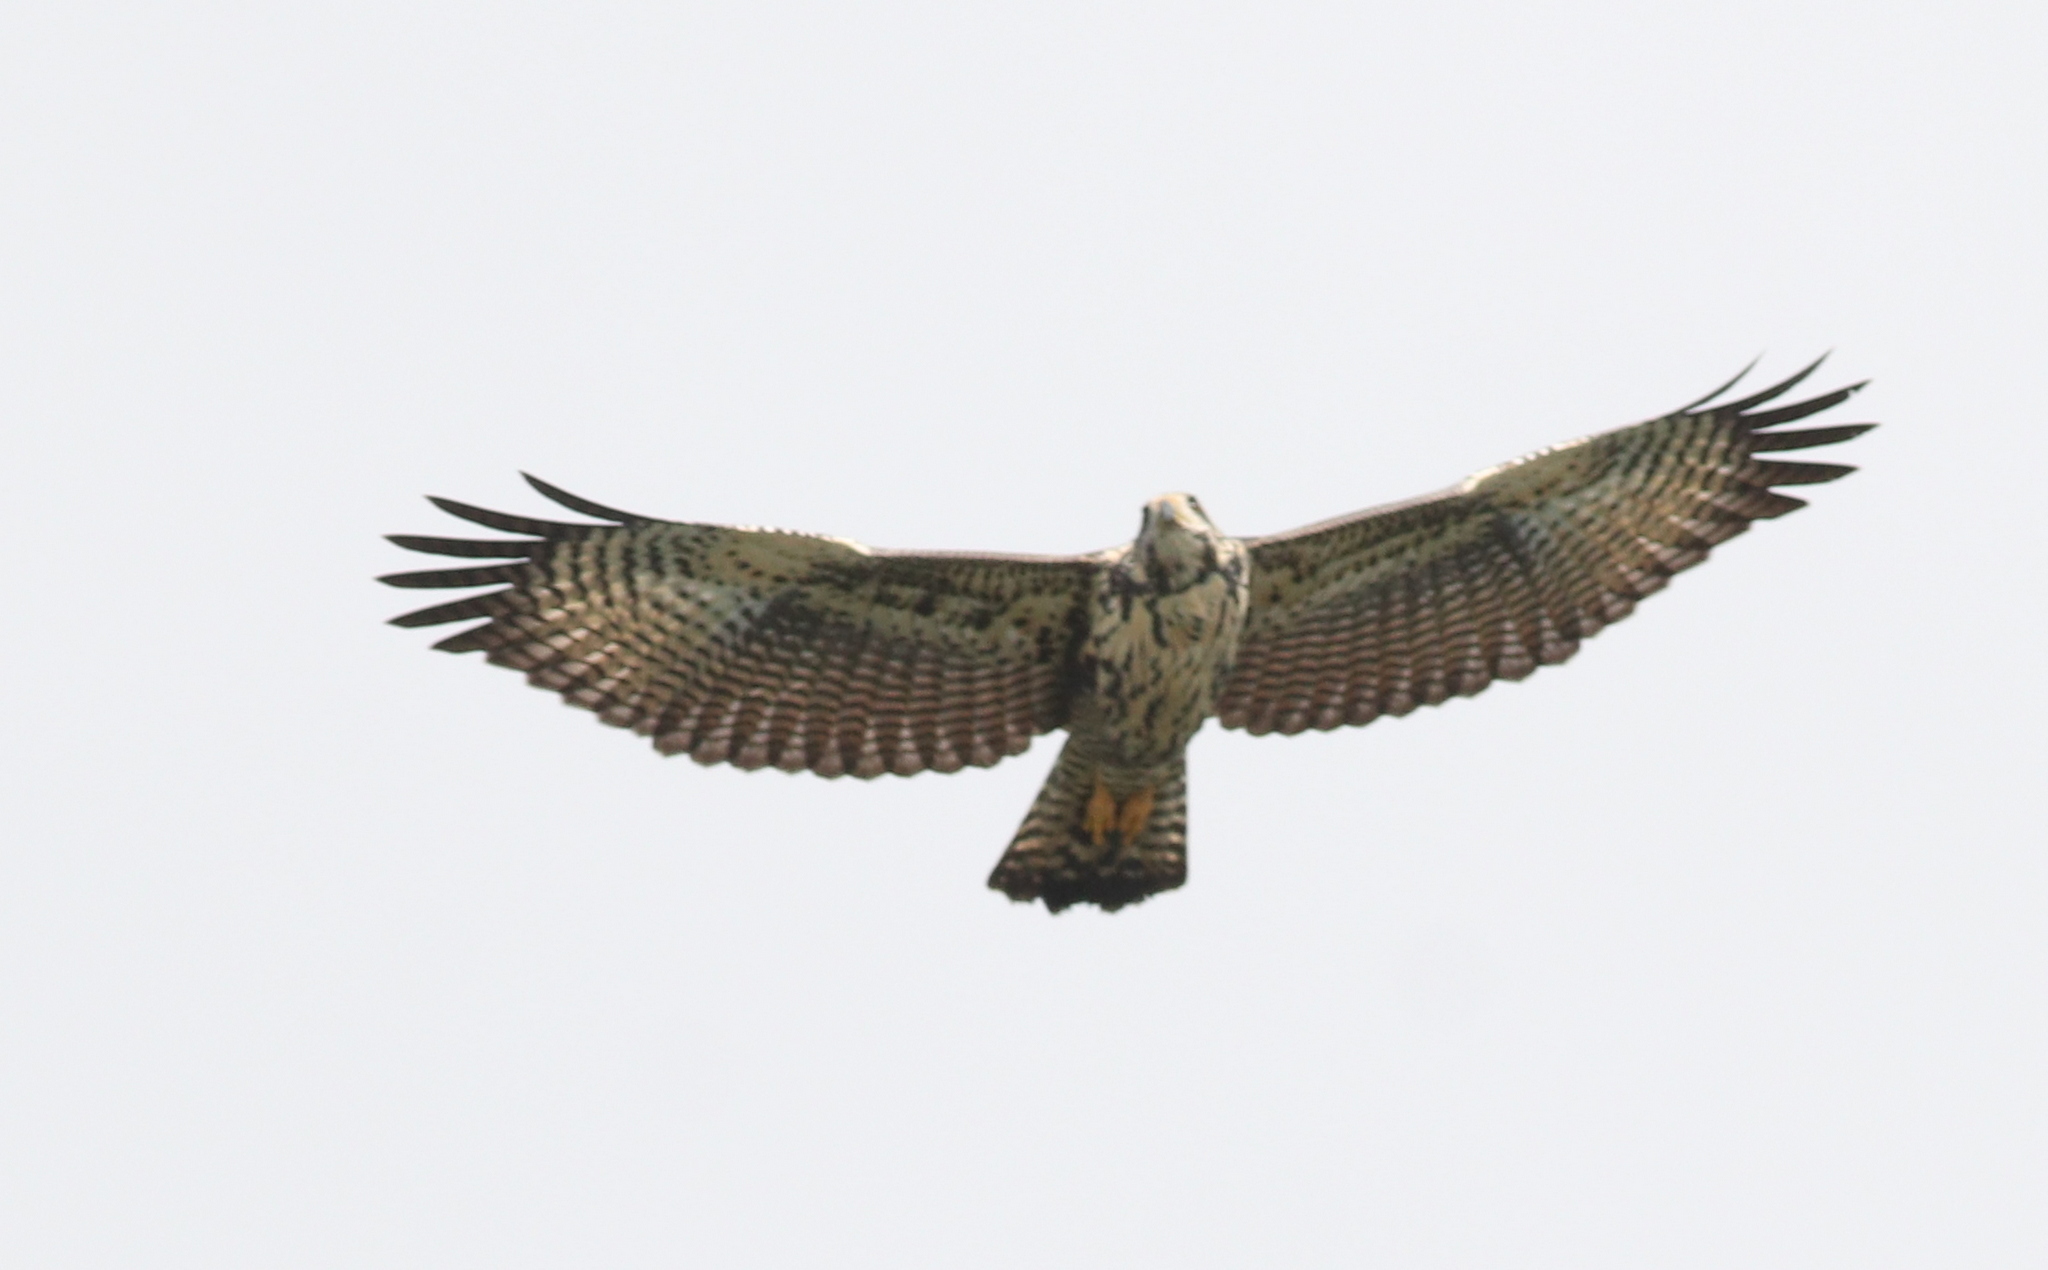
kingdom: Animalia
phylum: Chordata
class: Aves
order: Accipitriformes
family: Accipitridae
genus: Buteogallus
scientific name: Buteogallus anthracinus
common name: Common black hawk
